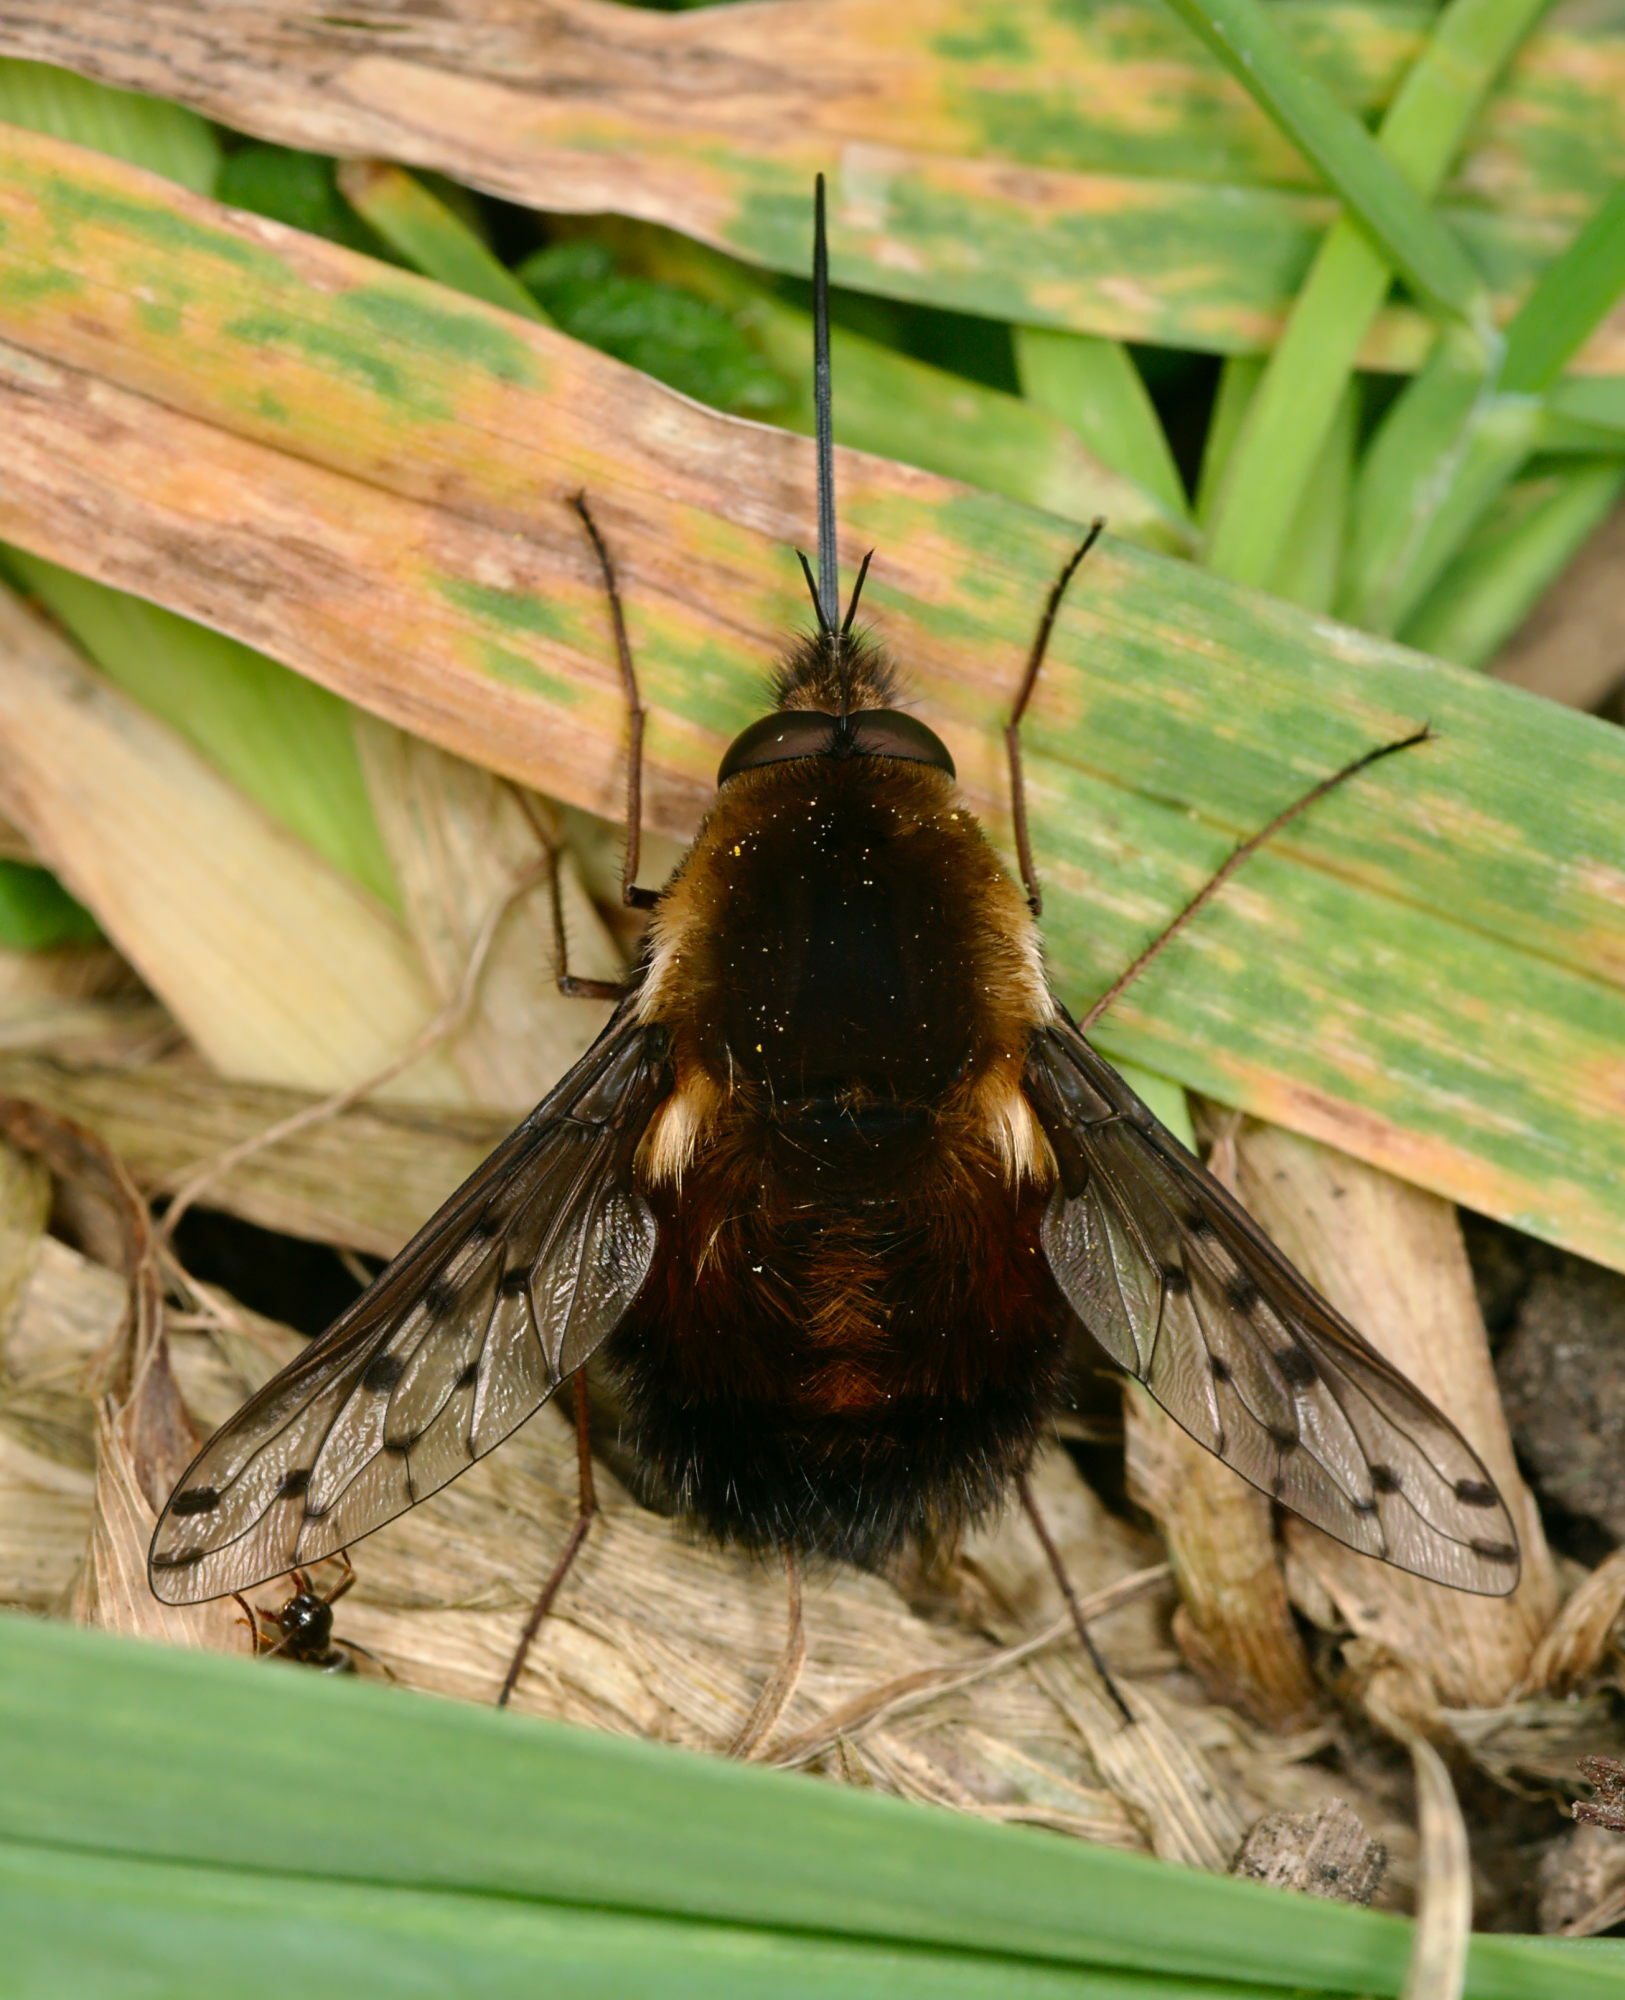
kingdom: Animalia
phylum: Arthropoda
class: Insecta
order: Diptera
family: Bombyliidae
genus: Bombylius
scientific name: Bombylius discolor
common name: Dotted bee-fly
